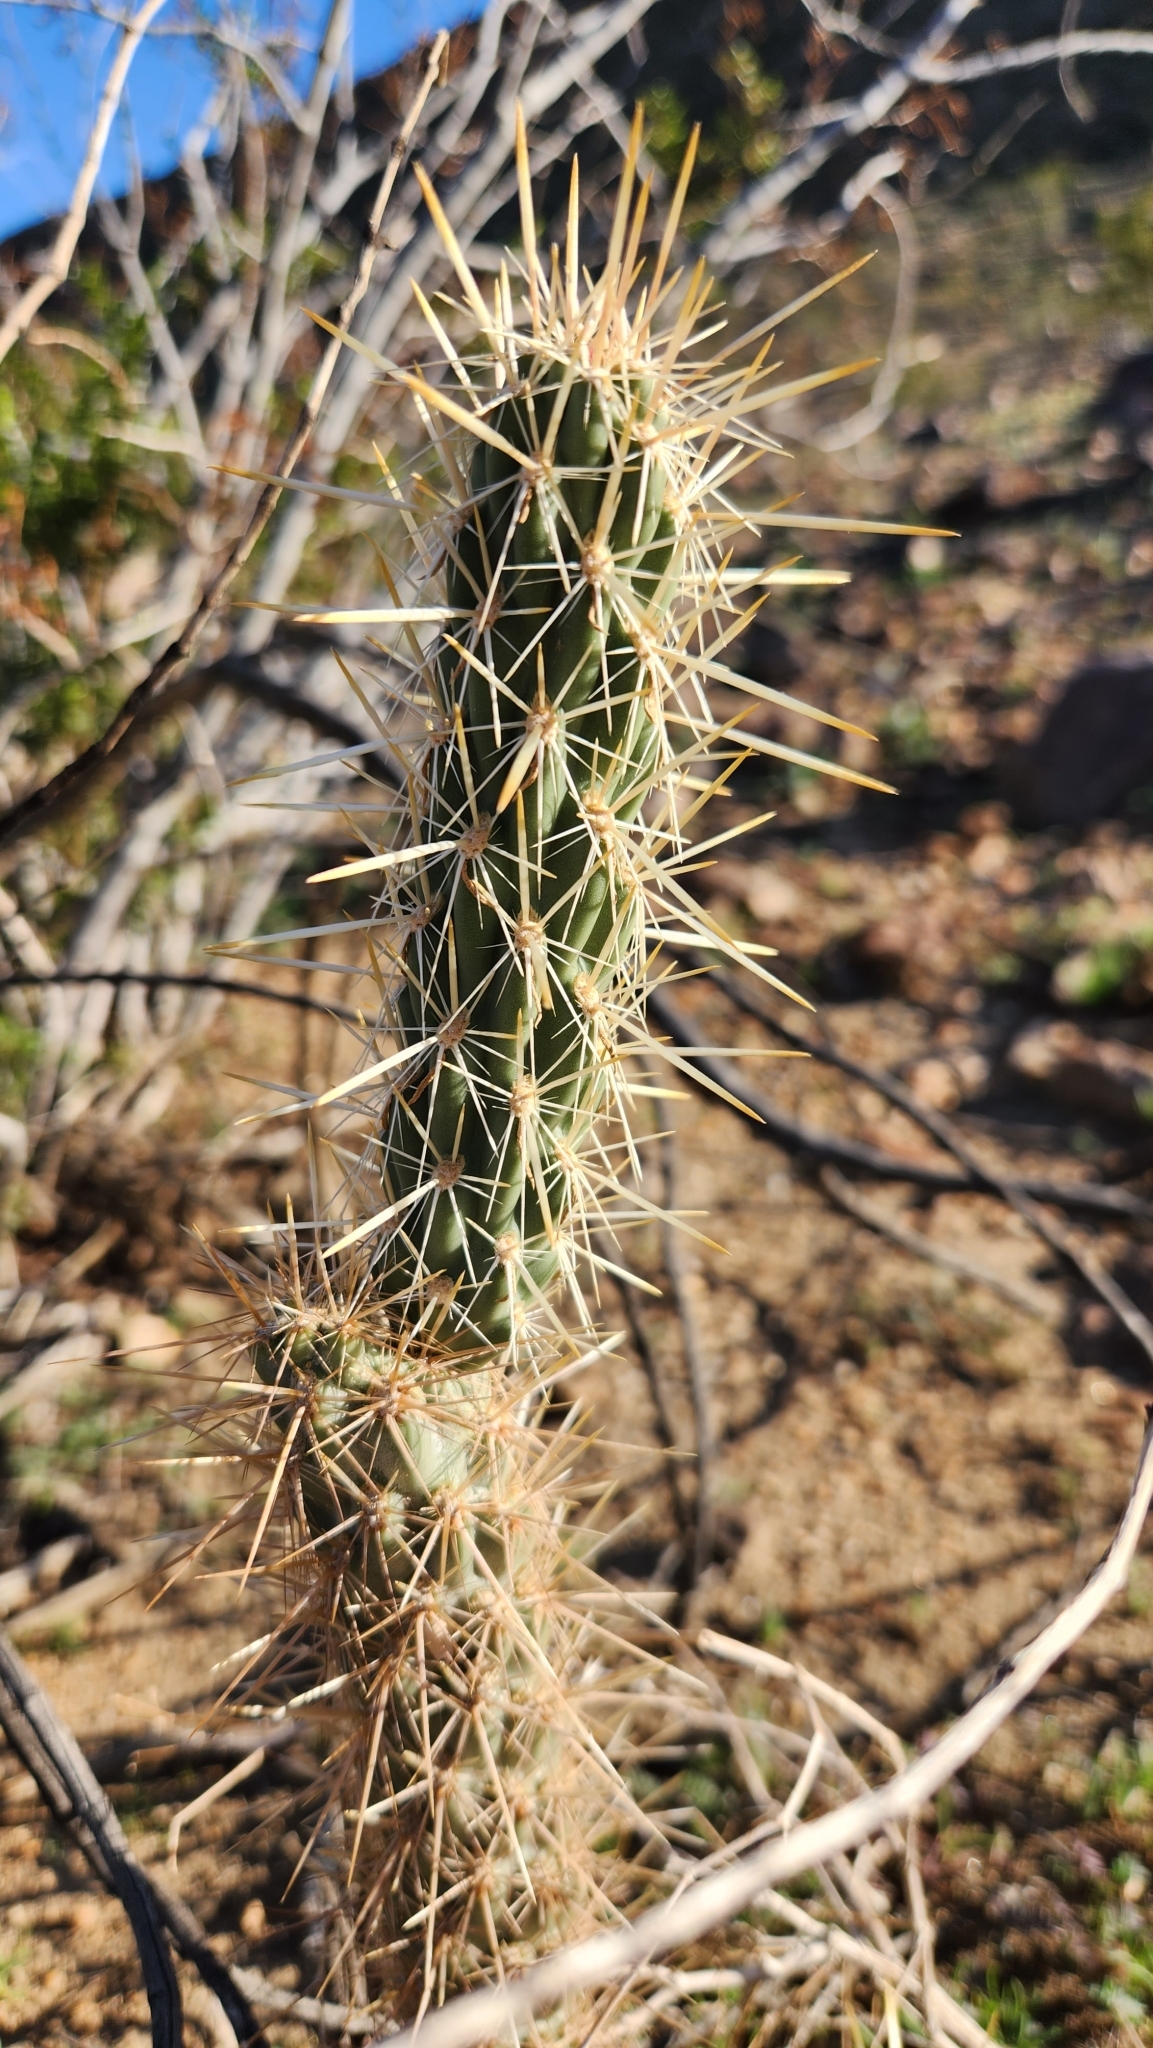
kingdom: Plantae
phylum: Tracheophyta
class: Magnoliopsida
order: Caryophyllales
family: Cactaceae
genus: Cylindropuntia
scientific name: Cylindropuntia ganderi
